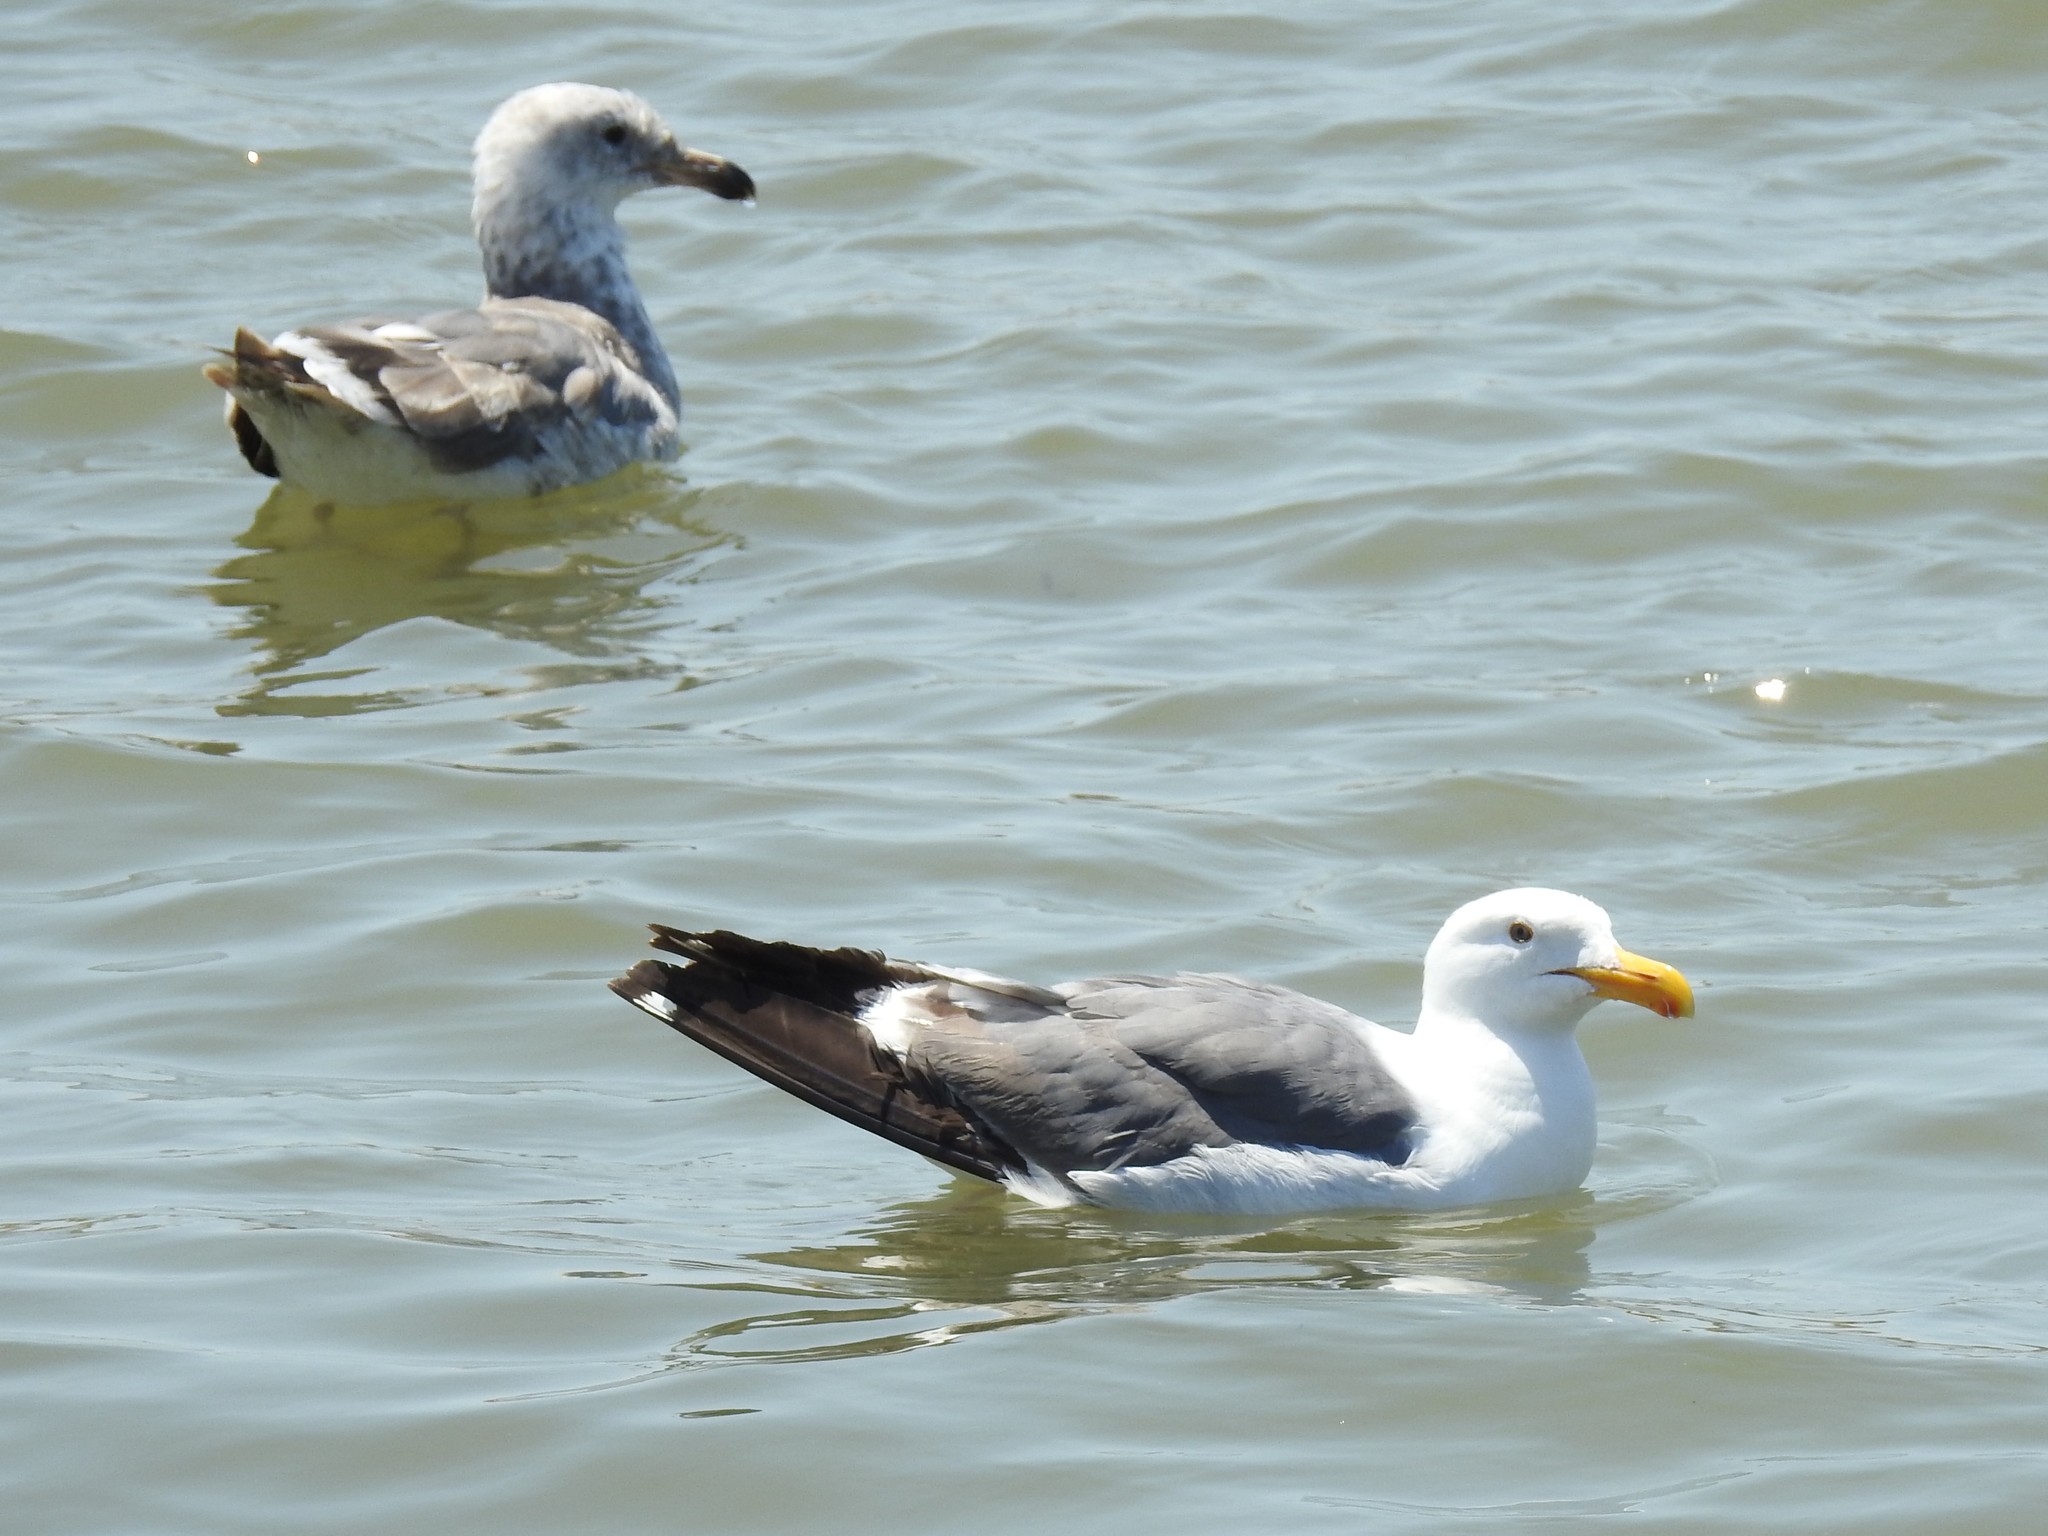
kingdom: Animalia
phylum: Chordata
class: Aves
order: Charadriiformes
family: Laridae
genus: Larus
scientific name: Larus occidentalis
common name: Western gull
